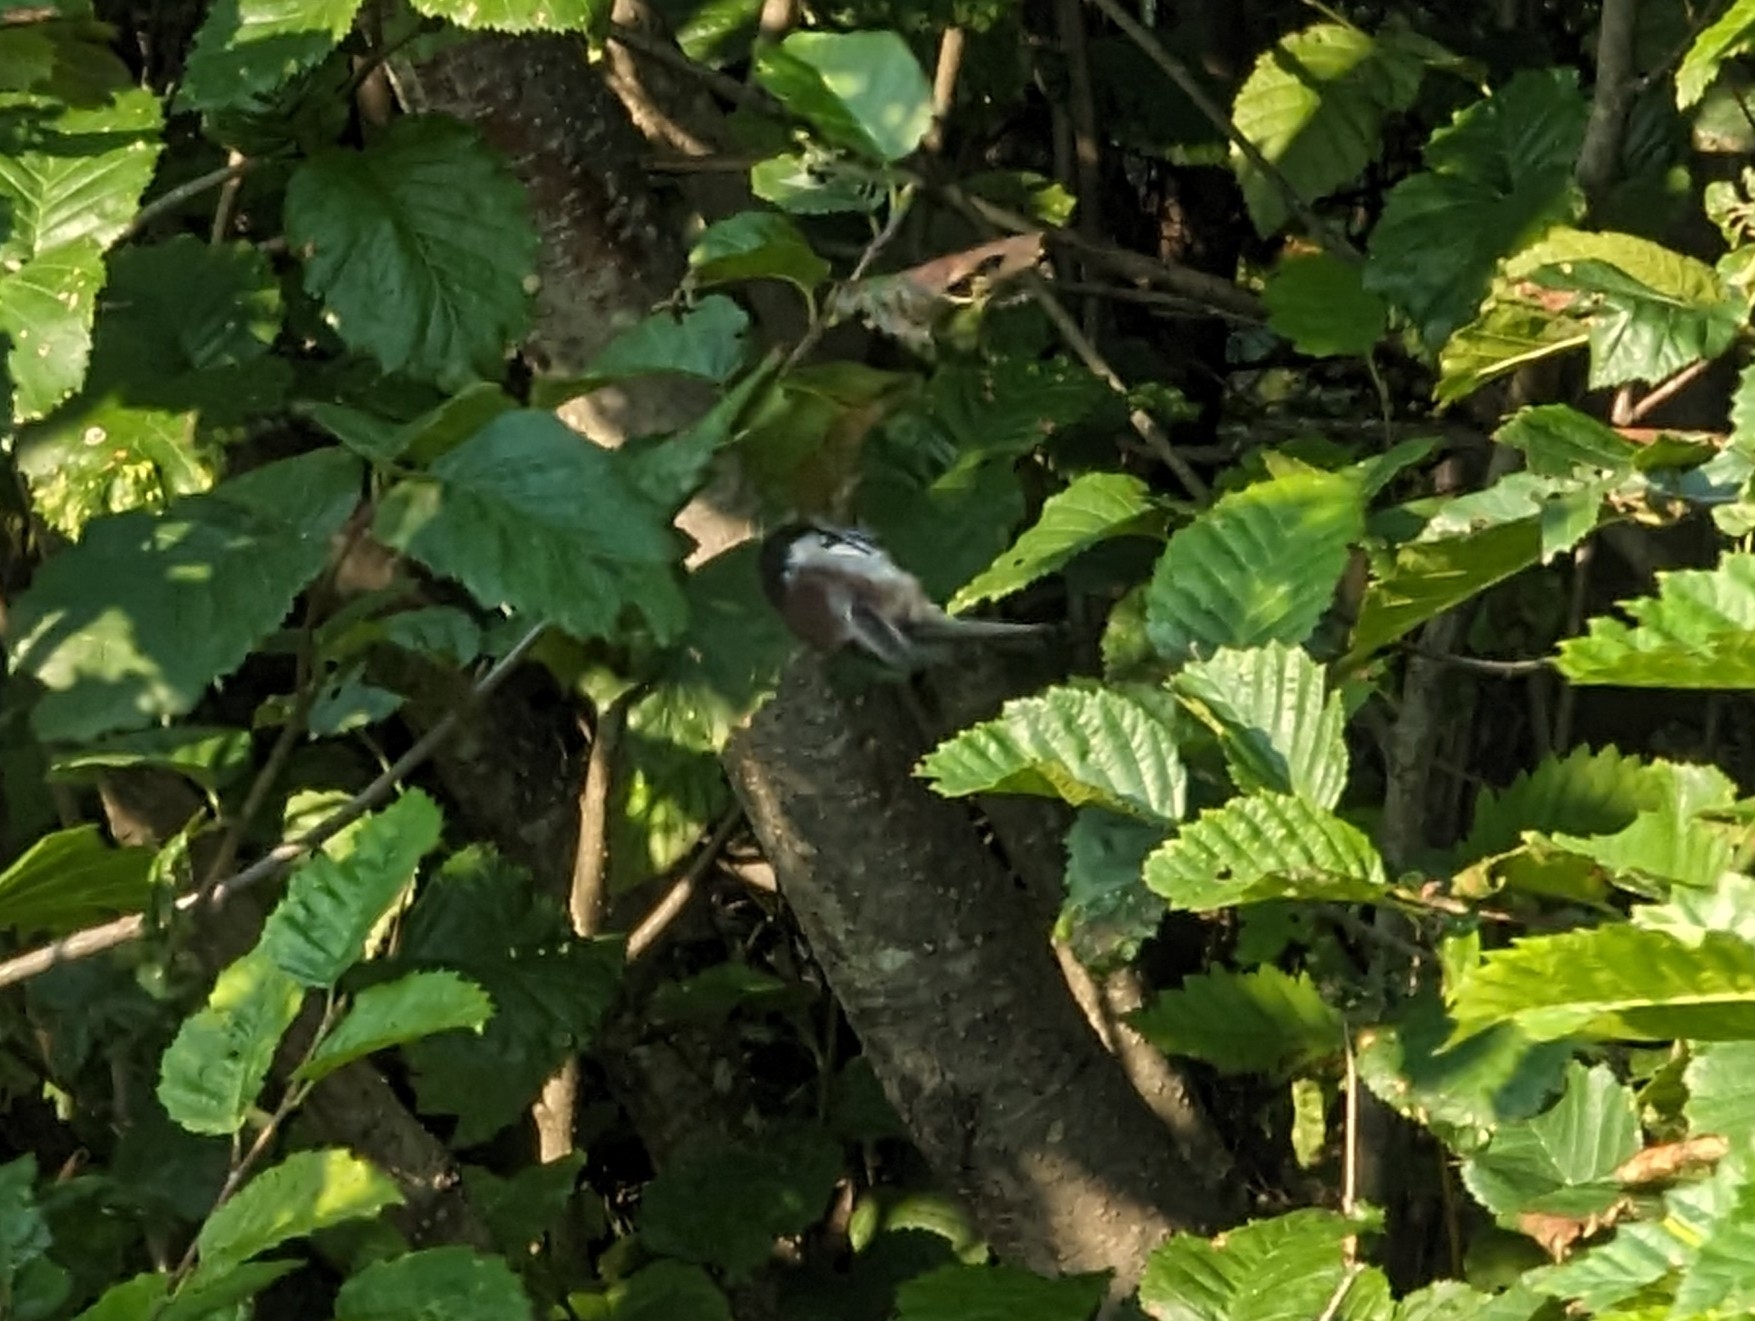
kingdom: Animalia
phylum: Chordata
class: Aves
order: Passeriformes
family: Paridae
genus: Poecile
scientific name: Poecile rufescens
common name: Chestnut-backed chickadee
